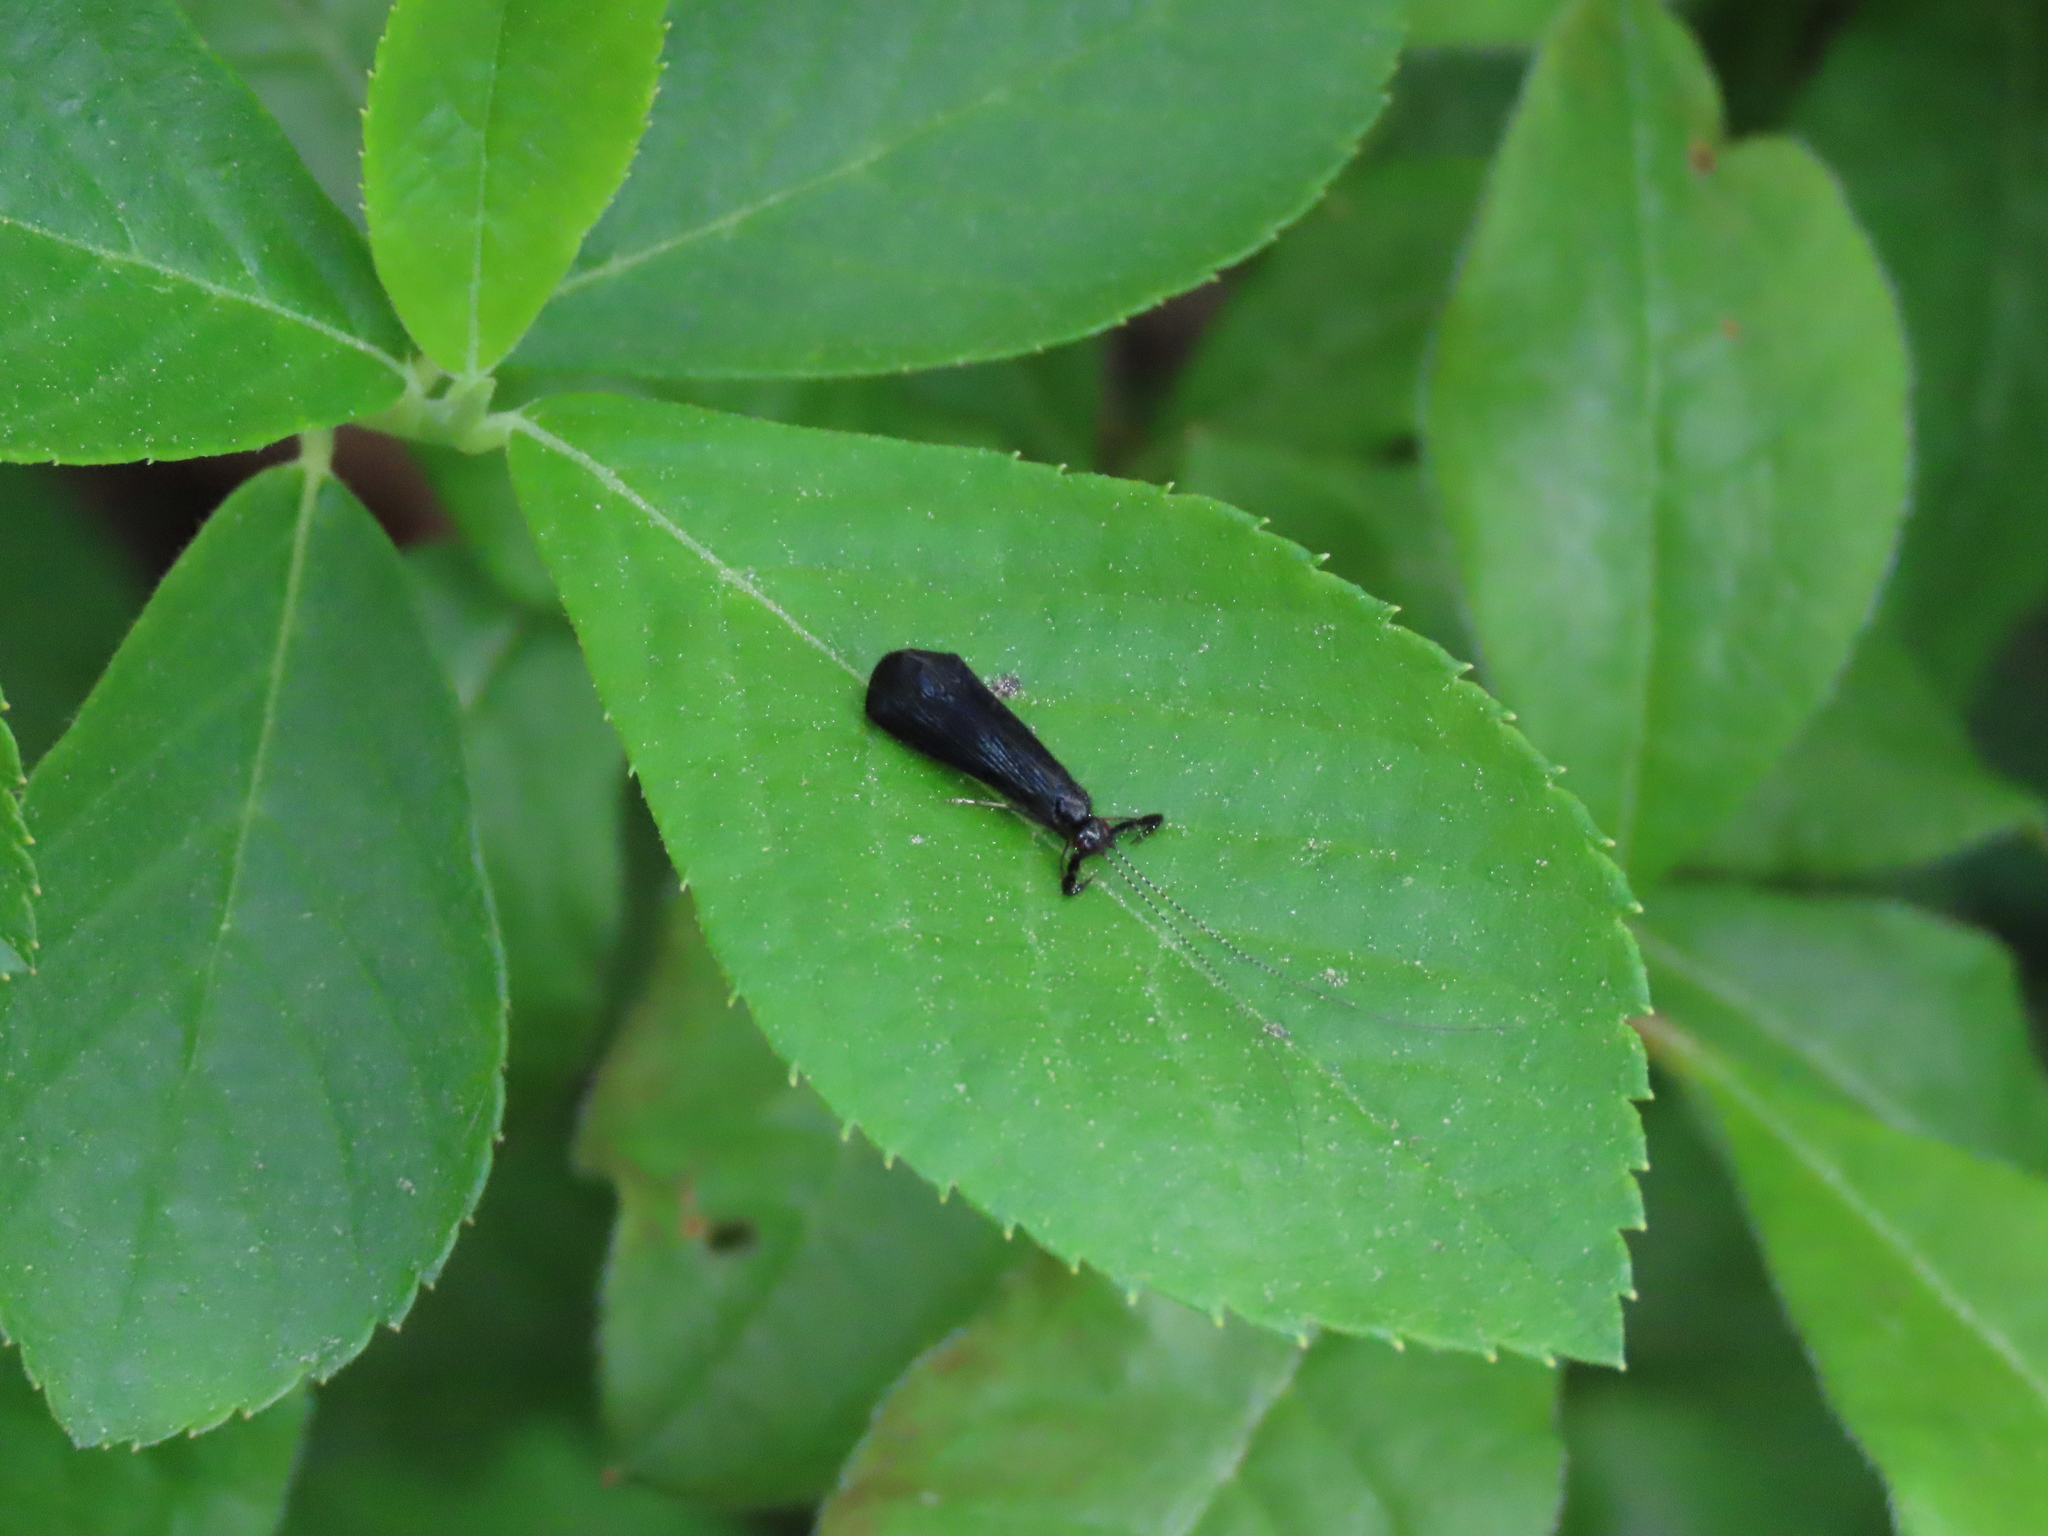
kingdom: Animalia
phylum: Arthropoda
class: Insecta
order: Trichoptera
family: Leptoceridae
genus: Mystacides
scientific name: Mystacides sepulchralis
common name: Black dancer caddisfly
